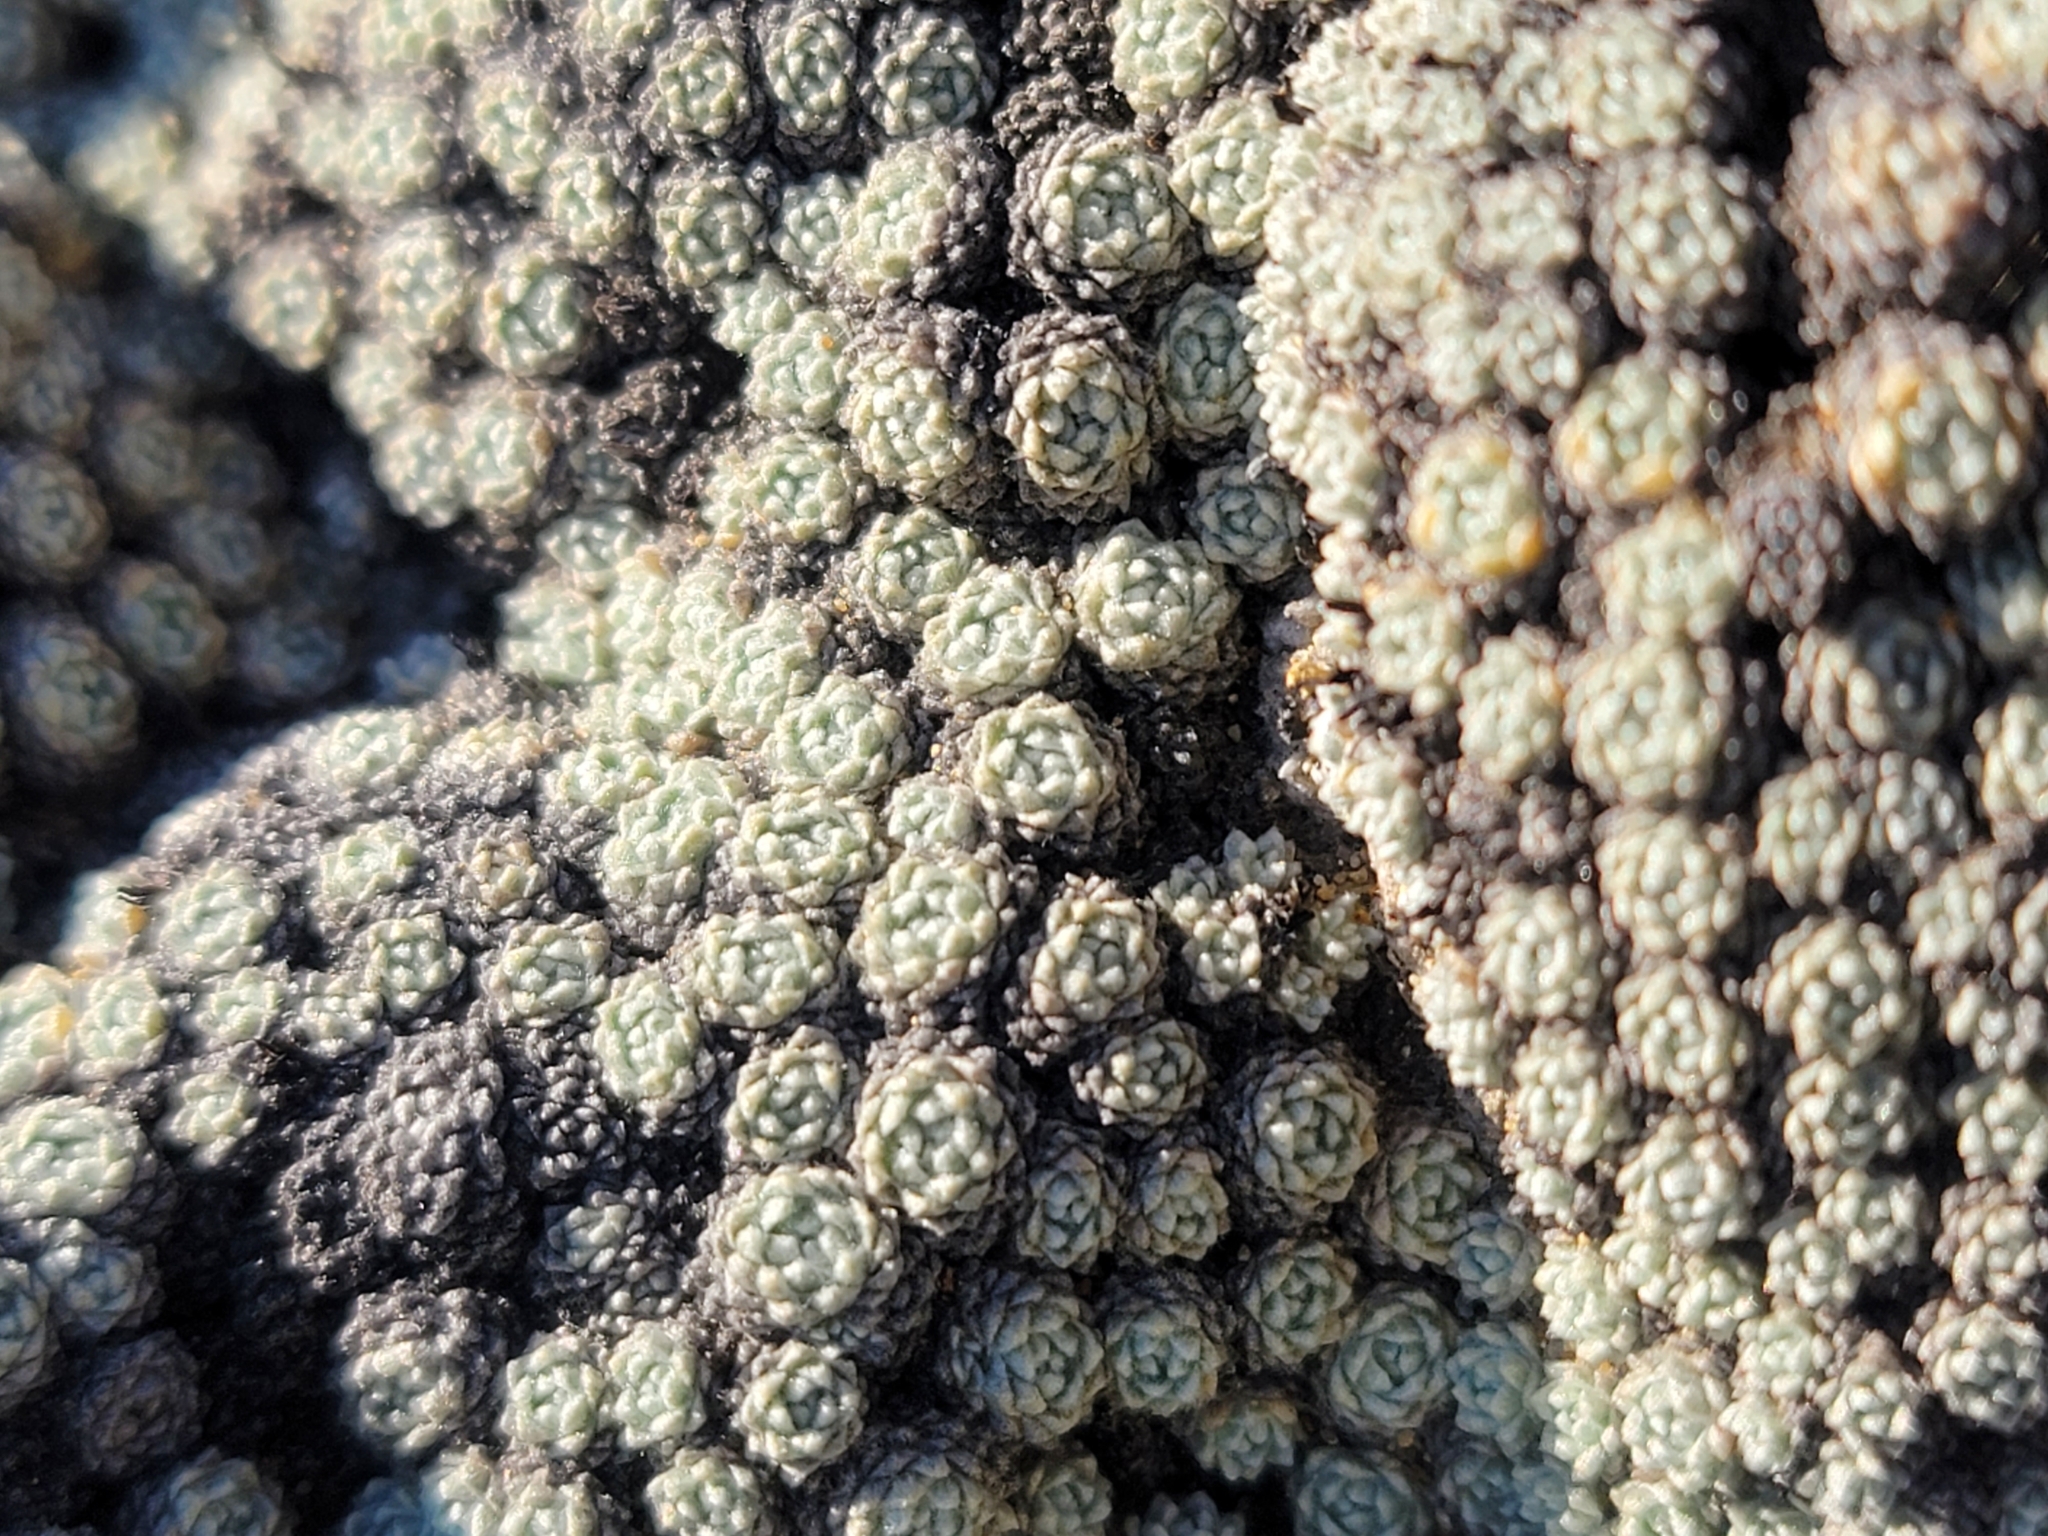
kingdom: Plantae
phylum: Tracheophyta
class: Magnoliopsida
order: Asterales
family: Asteraceae
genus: Raoulia
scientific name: Raoulia bryoides
